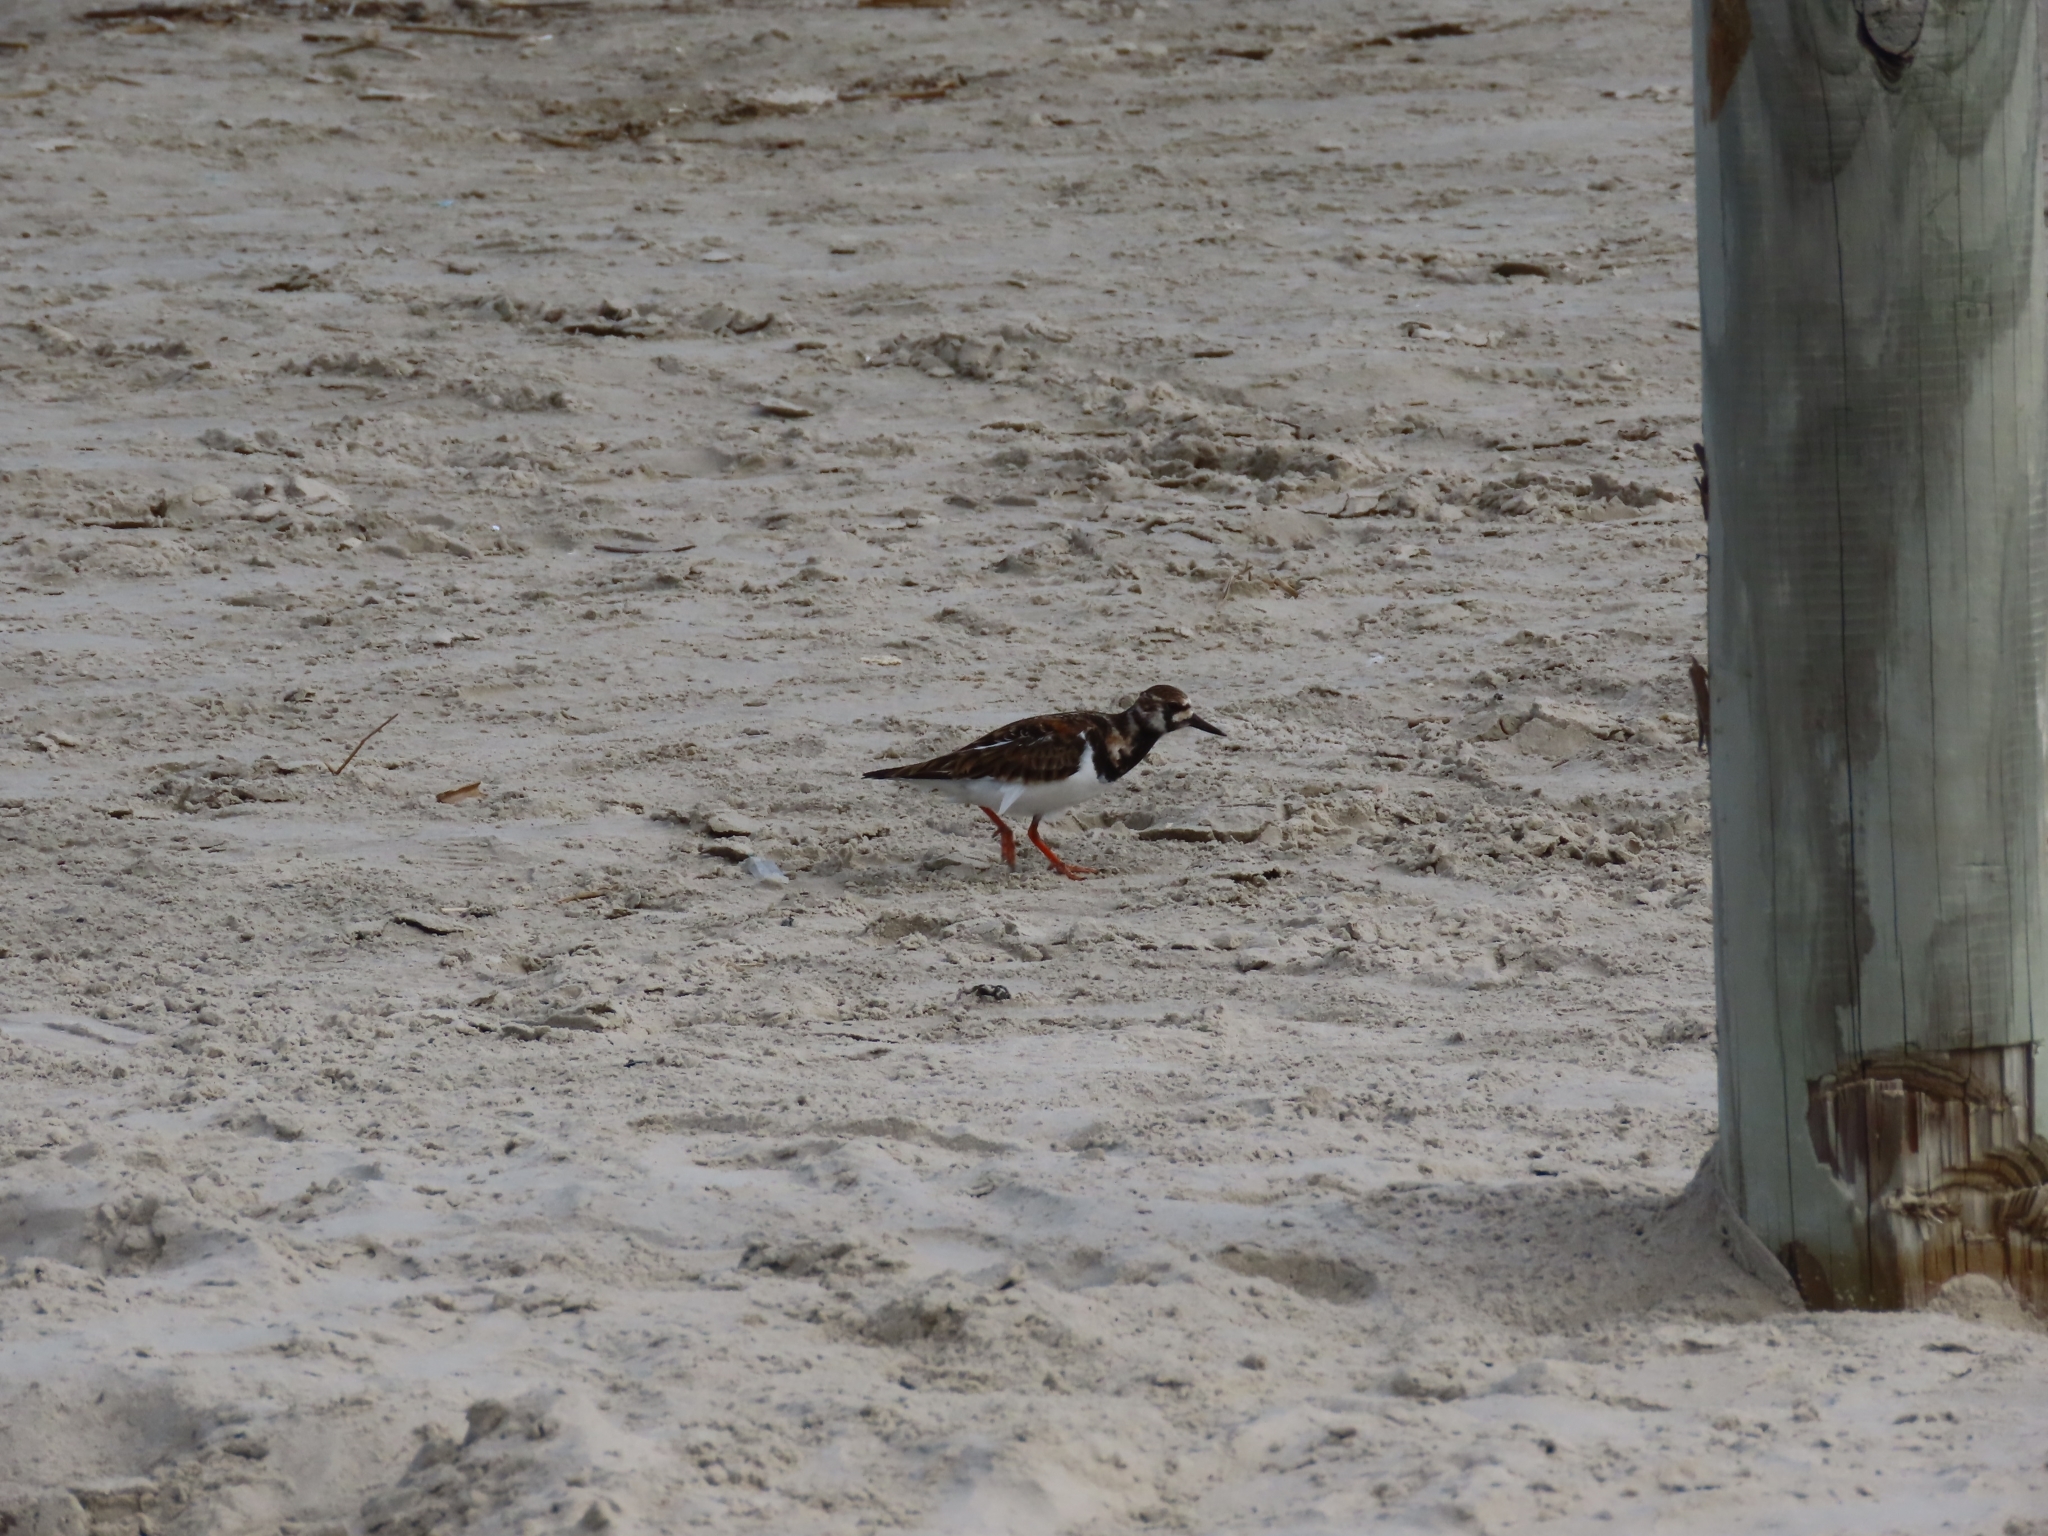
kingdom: Animalia
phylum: Chordata
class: Aves
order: Charadriiformes
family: Scolopacidae
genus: Arenaria
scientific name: Arenaria interpres
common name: Ruddy turnstone
